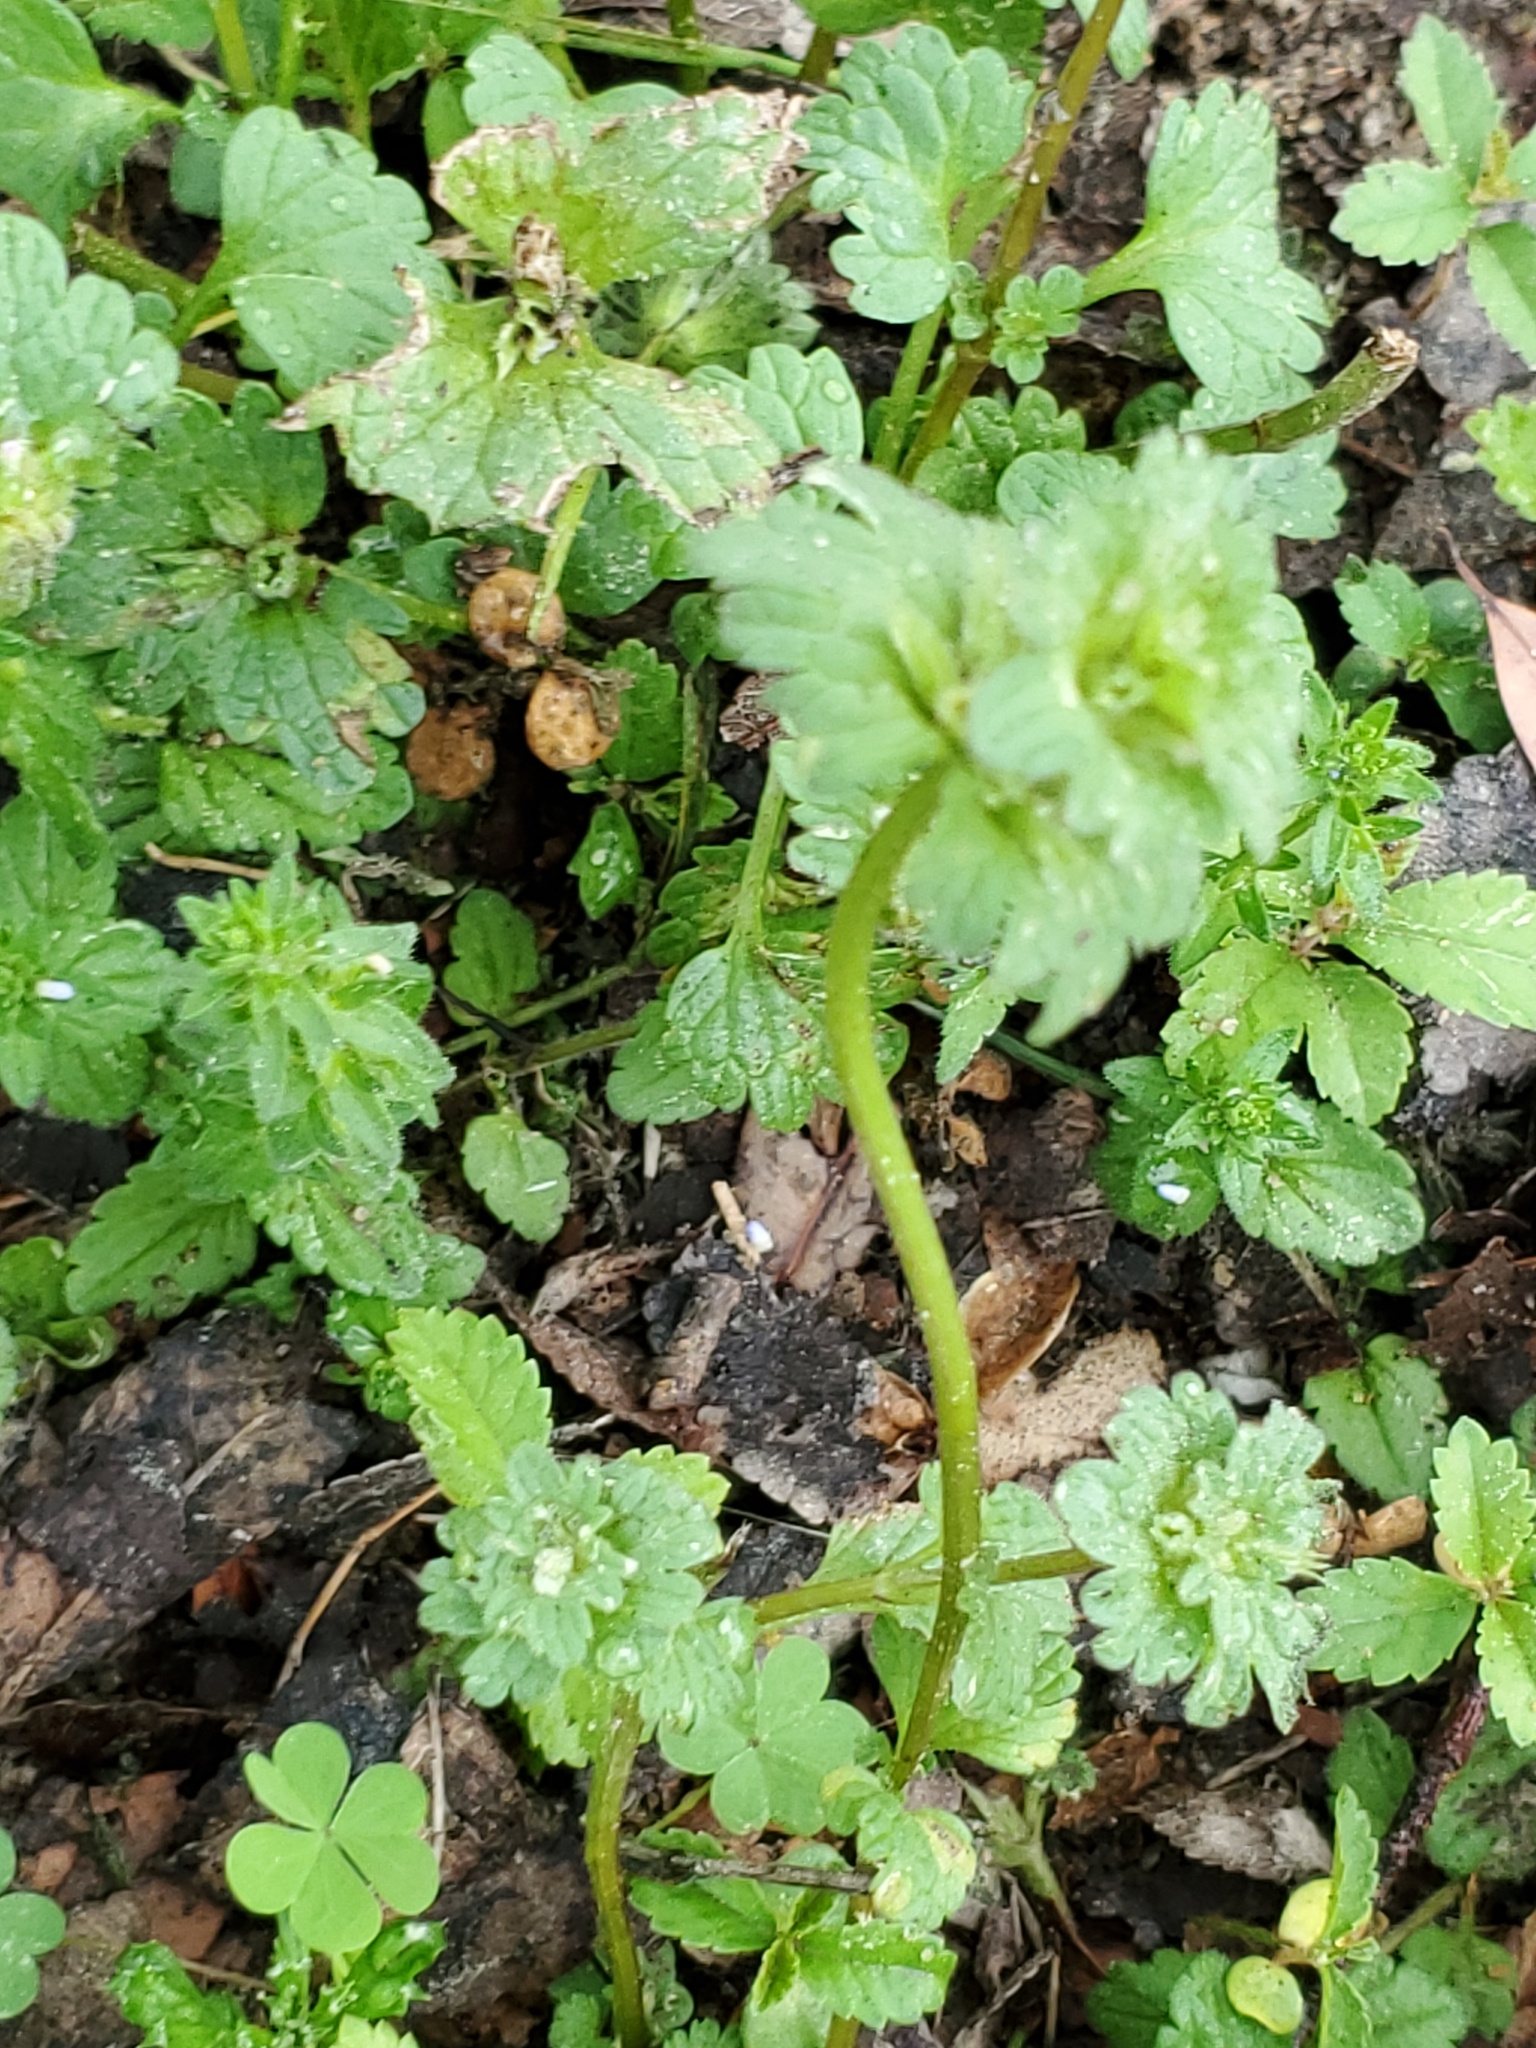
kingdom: Plantae
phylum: Tracheophyta
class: Magnoliopsida
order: Lamiales
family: Lamiaceae
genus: Lamium
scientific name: Lamium amplexicaule
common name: Henbit dead-nettle
